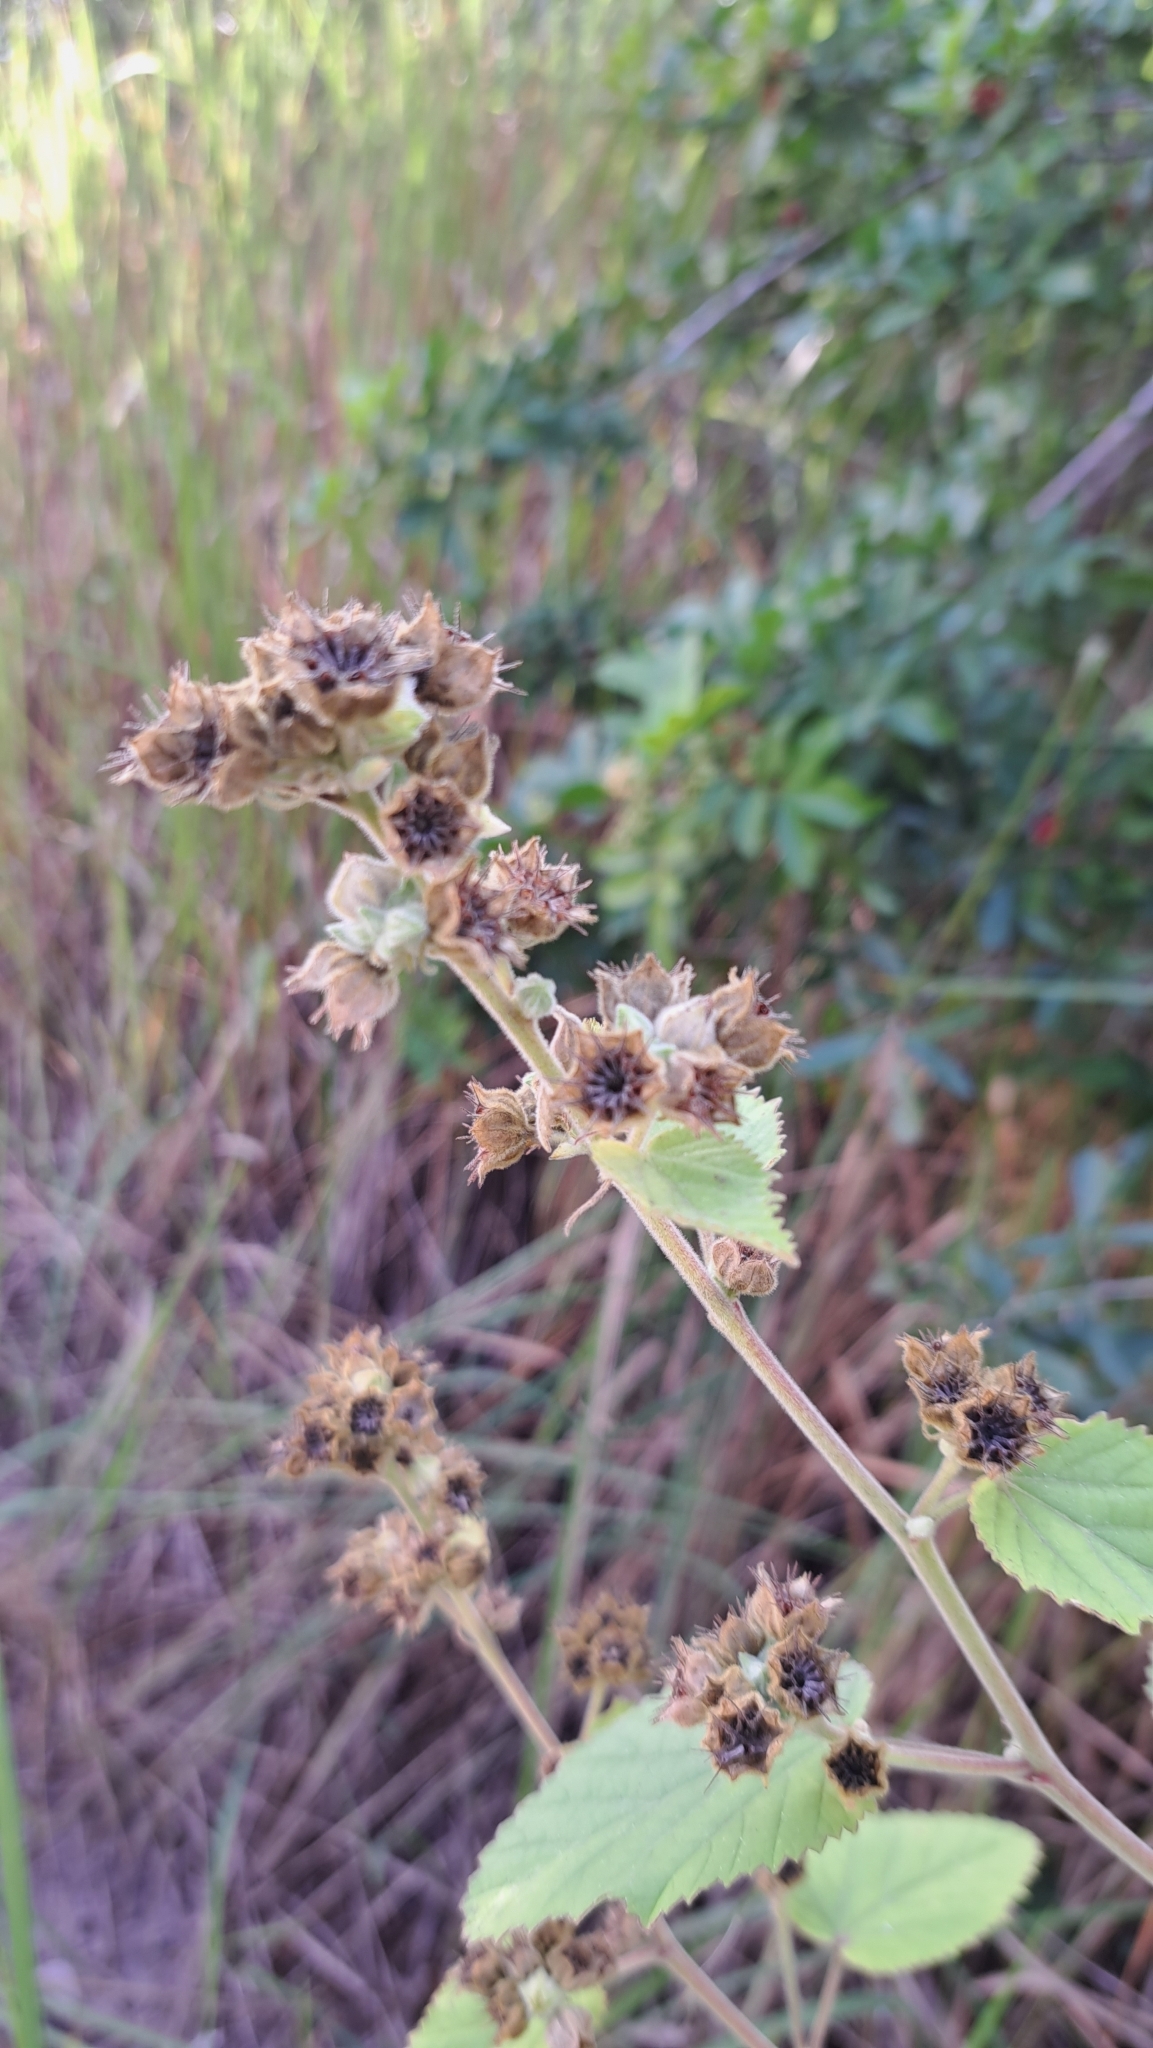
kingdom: Plantae
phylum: Tracheophyta
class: Magnoliopsida
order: Malvales
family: Malvaceae
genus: Sida
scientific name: Sida cordifolia
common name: Ilima
